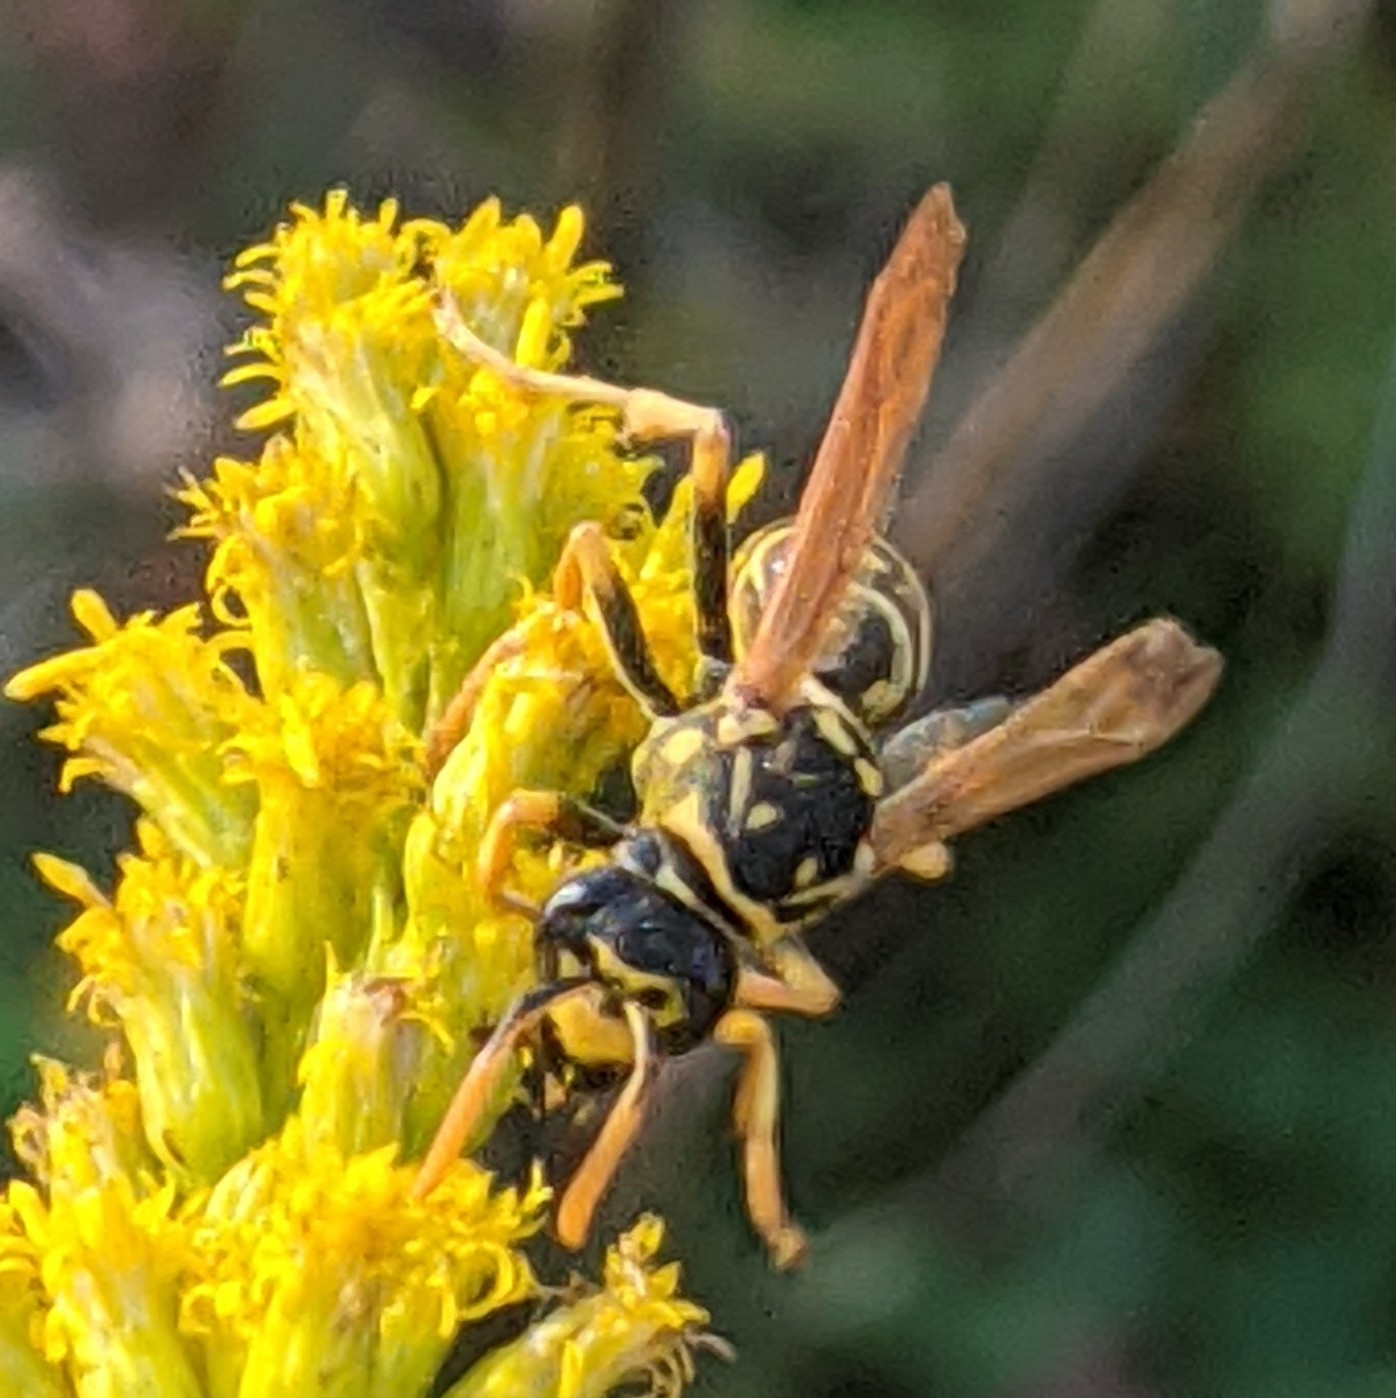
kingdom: Animalia
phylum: Arthropoda
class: Insecta
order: Hymenoptera
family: Eumenidae
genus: Polistes
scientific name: Polistes dominula
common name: Paper wasp
